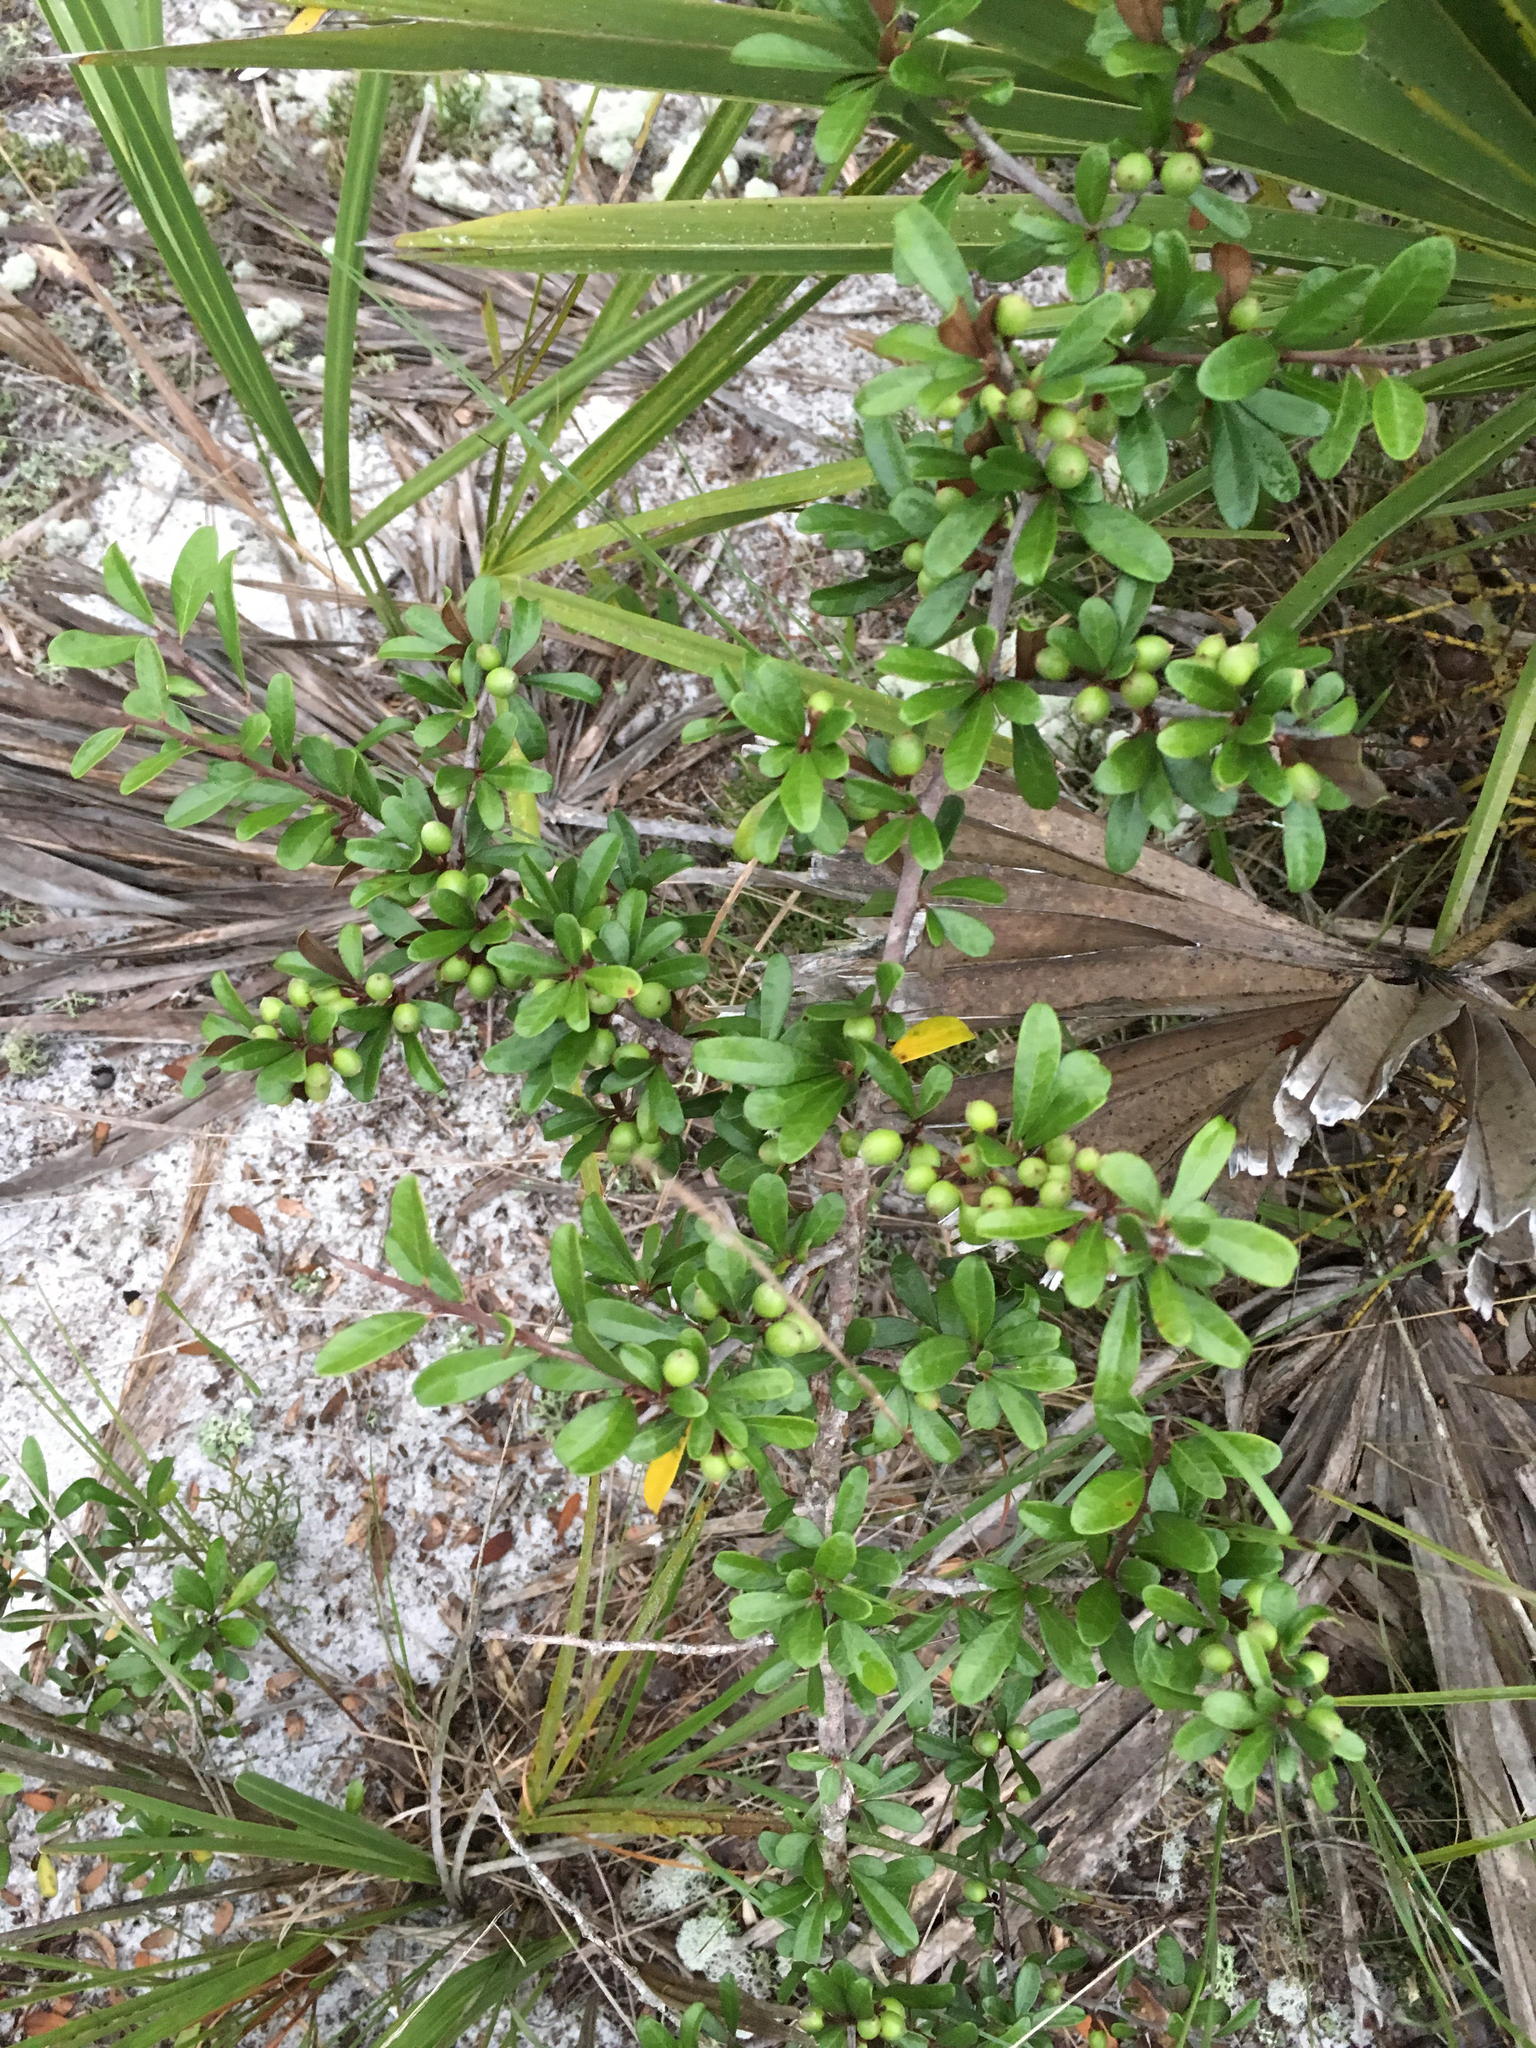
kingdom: Plantae
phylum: Tracheophyta
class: Magnoliopsida
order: Ericales
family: Sapotaceae
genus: Sideroxylon
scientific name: Sideroxylon tenax
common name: Tough-buckthorn
